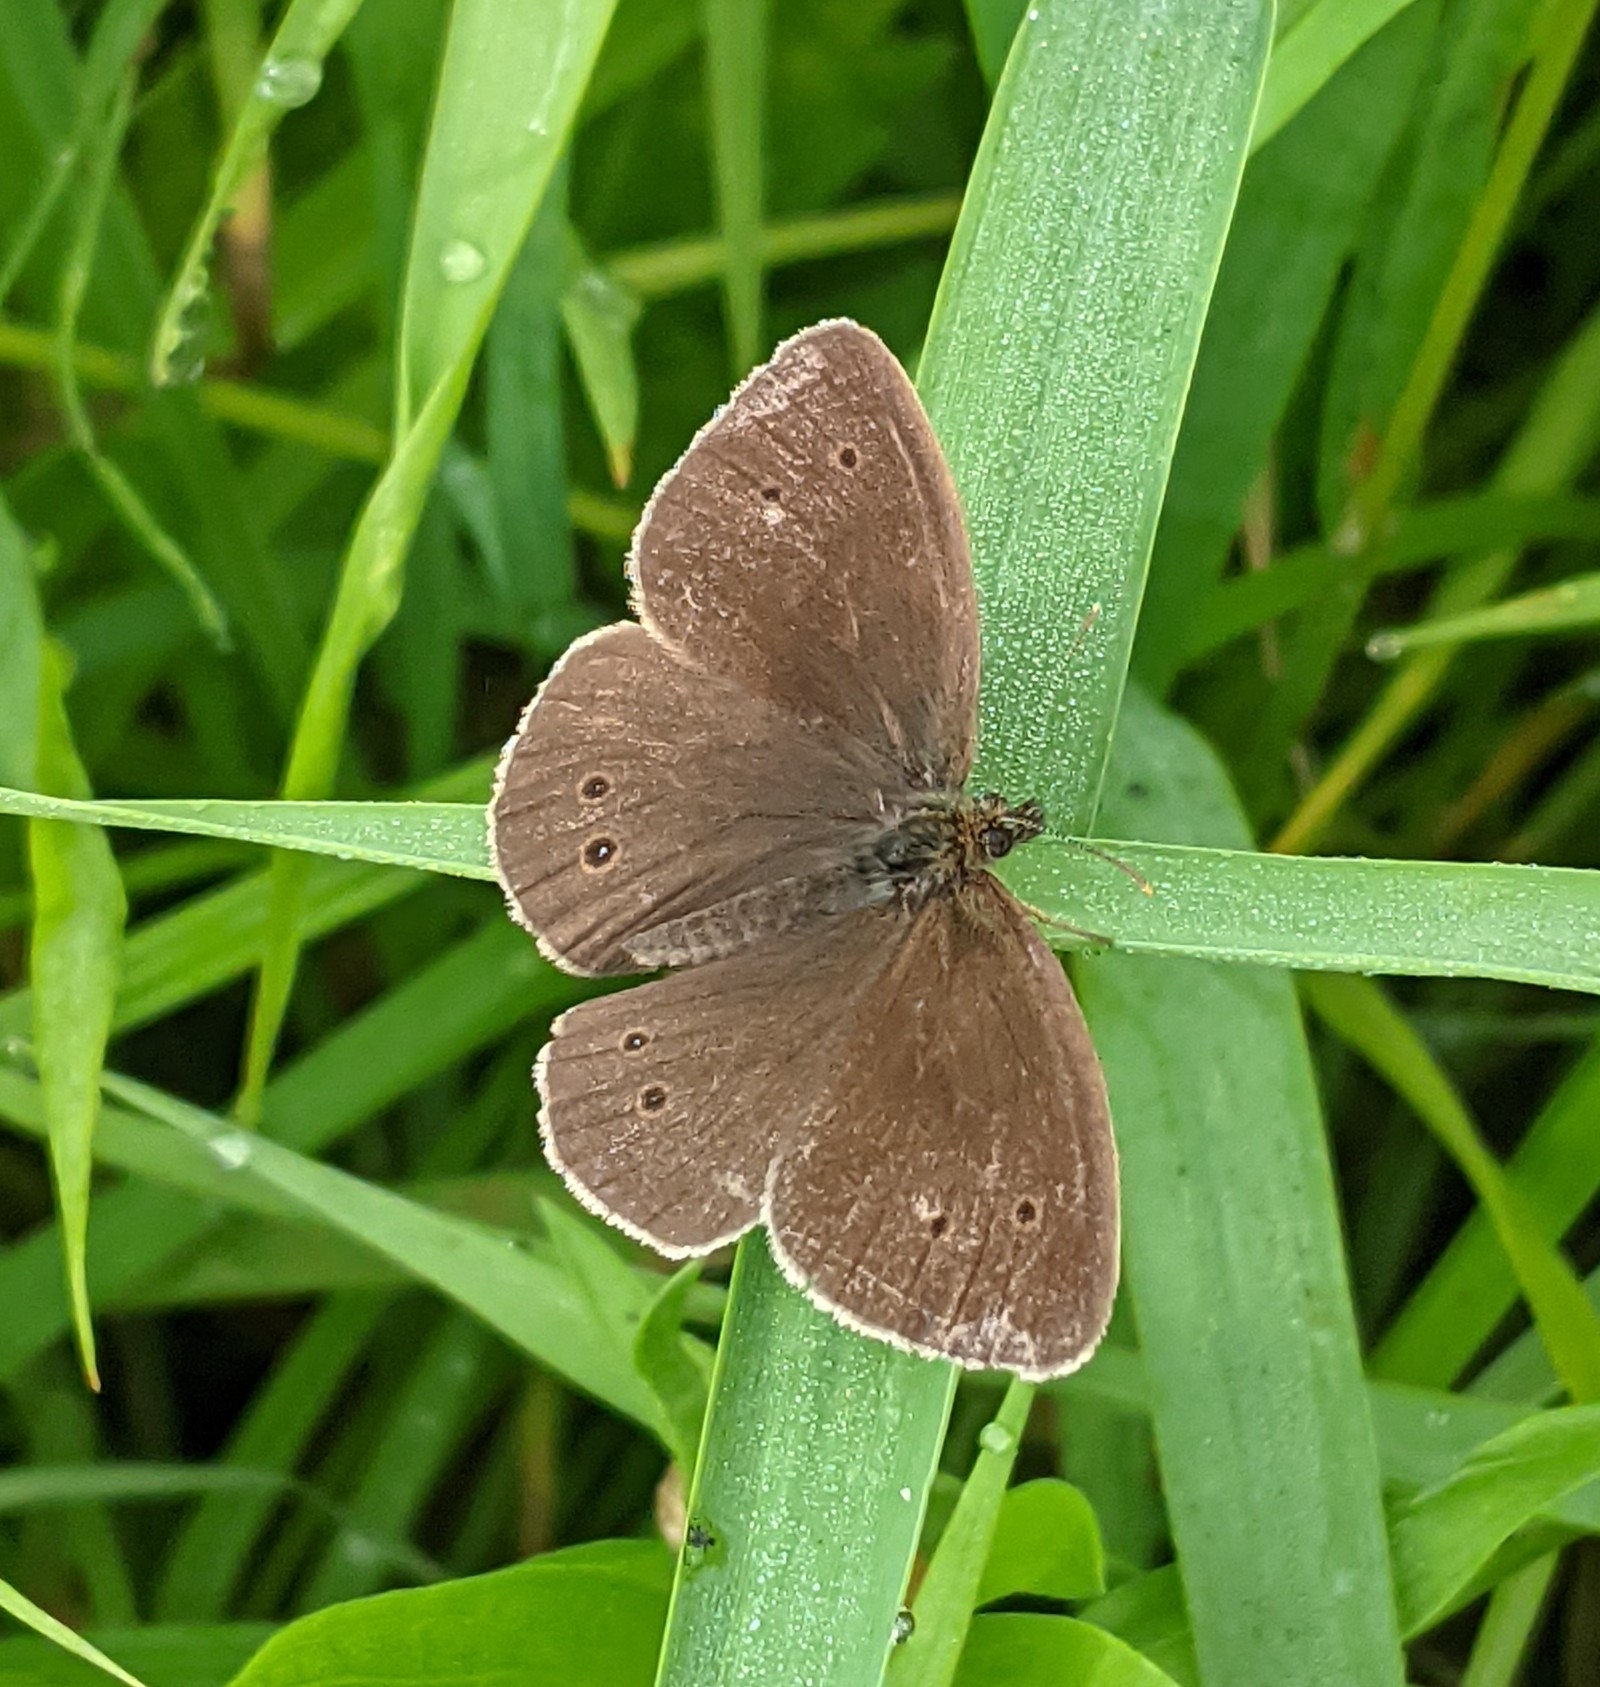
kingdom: Animalia
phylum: Arthropoda
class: Insecta
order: Lepidoptera
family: Nymphalidae
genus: Aphantopus
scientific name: Aphantopus hyperantus
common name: Ringlet
